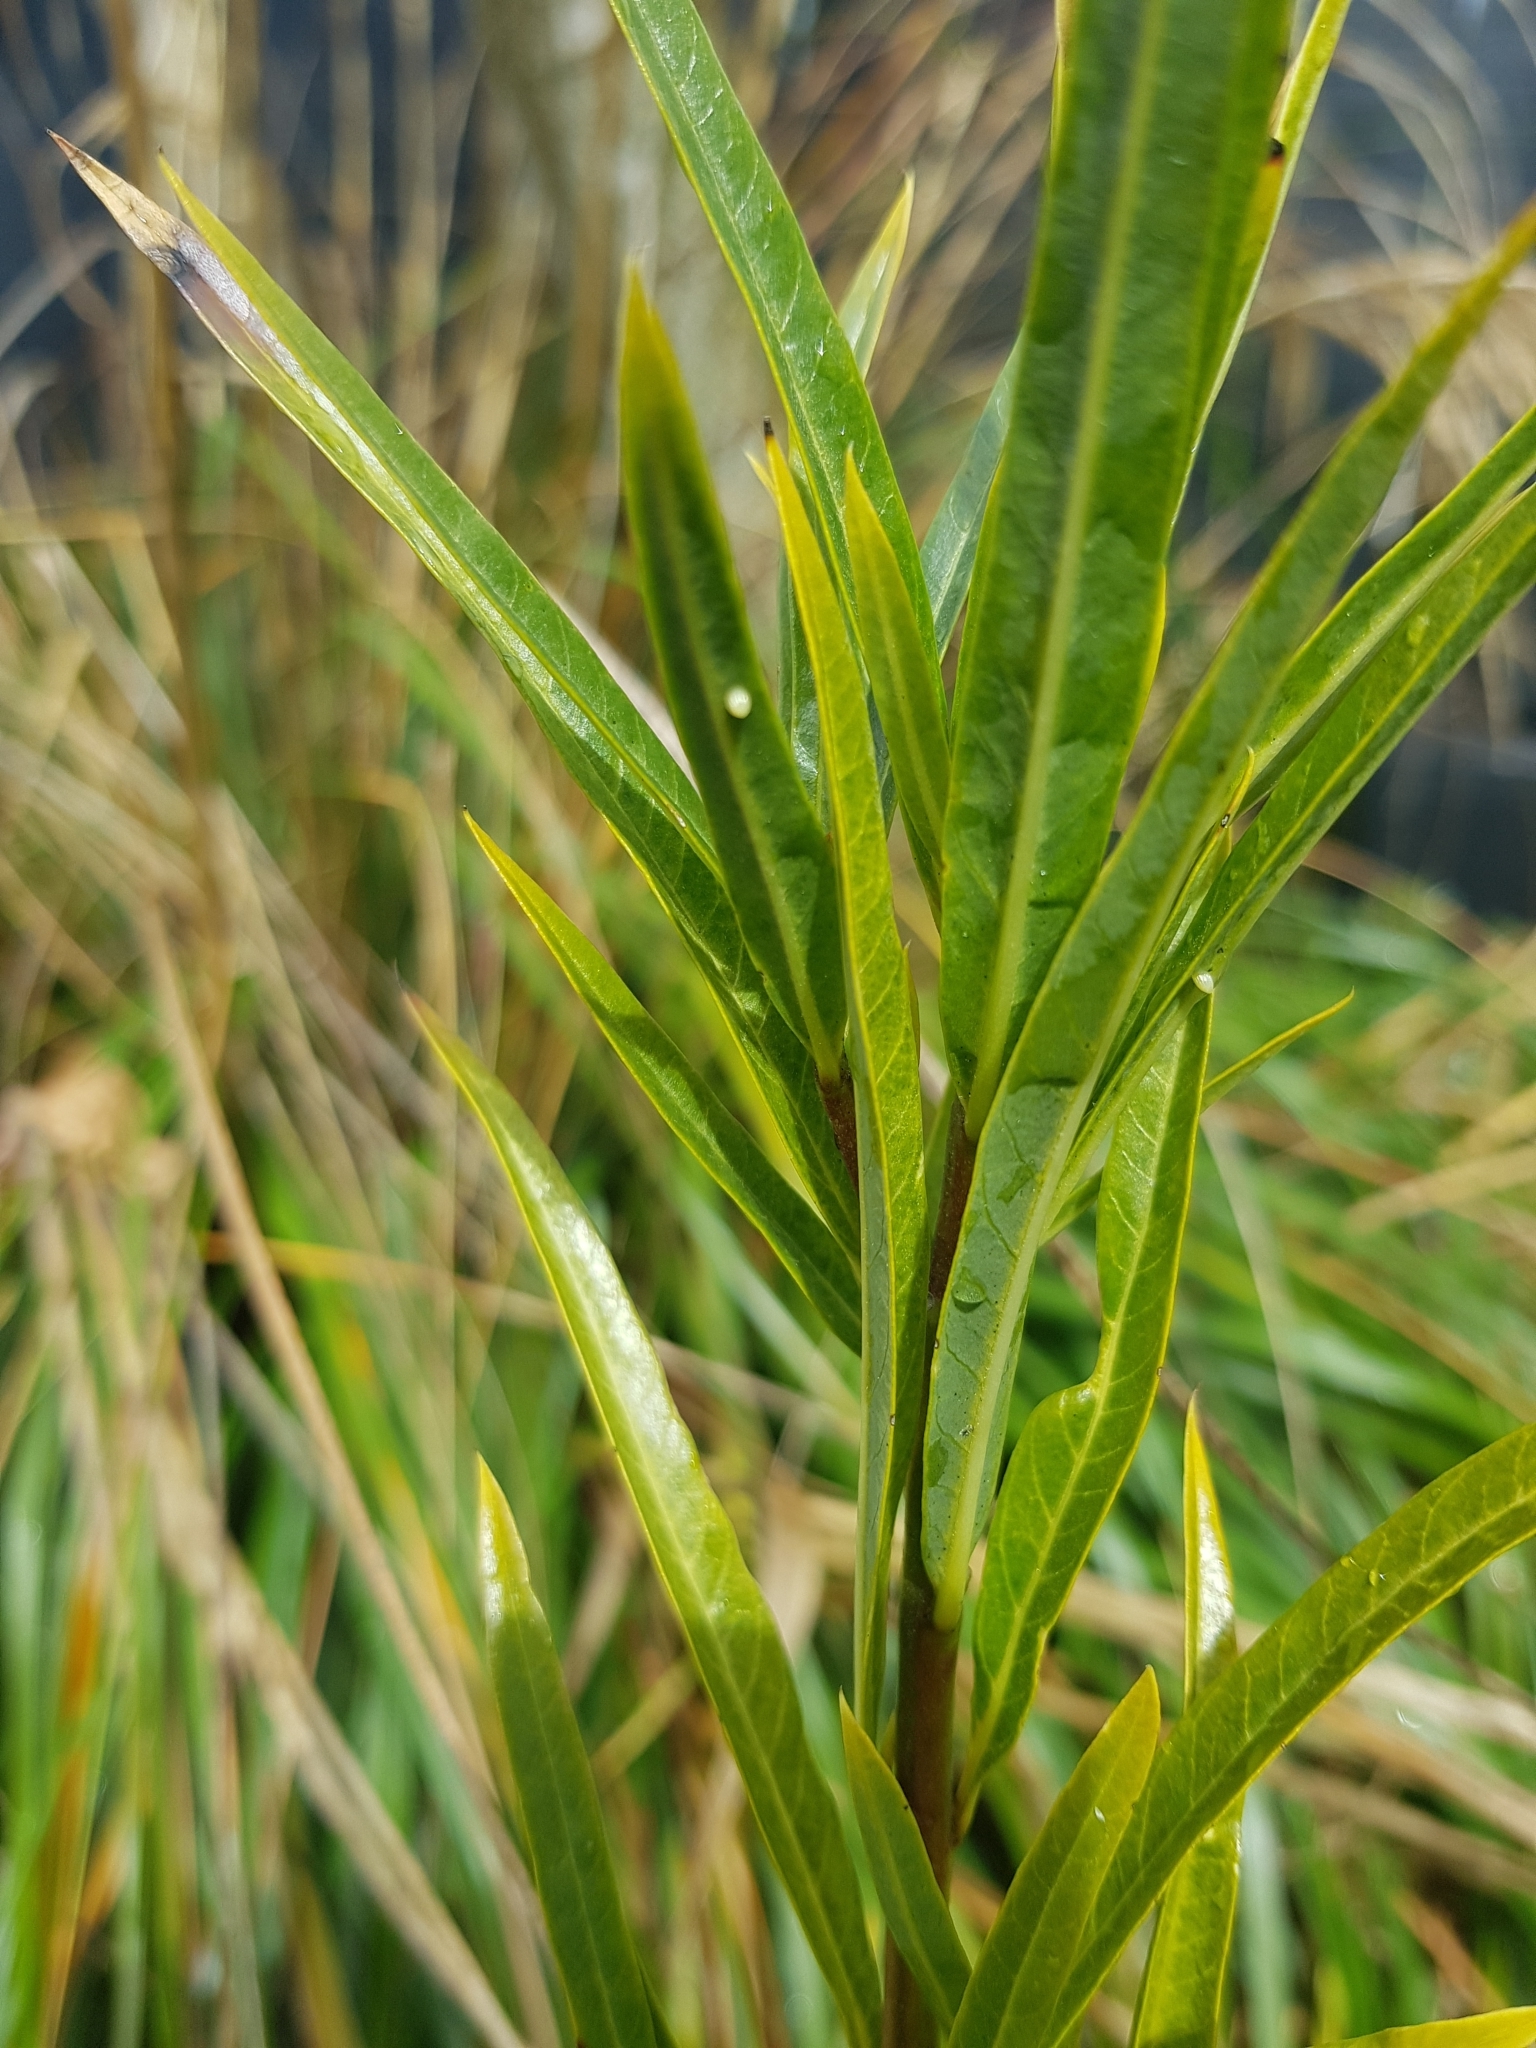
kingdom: Animalia
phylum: Arthropoda
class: Insecta
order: Lepidoptera
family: Nymphalidae
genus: Danaus
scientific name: Danaus plexippus
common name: Monarch
